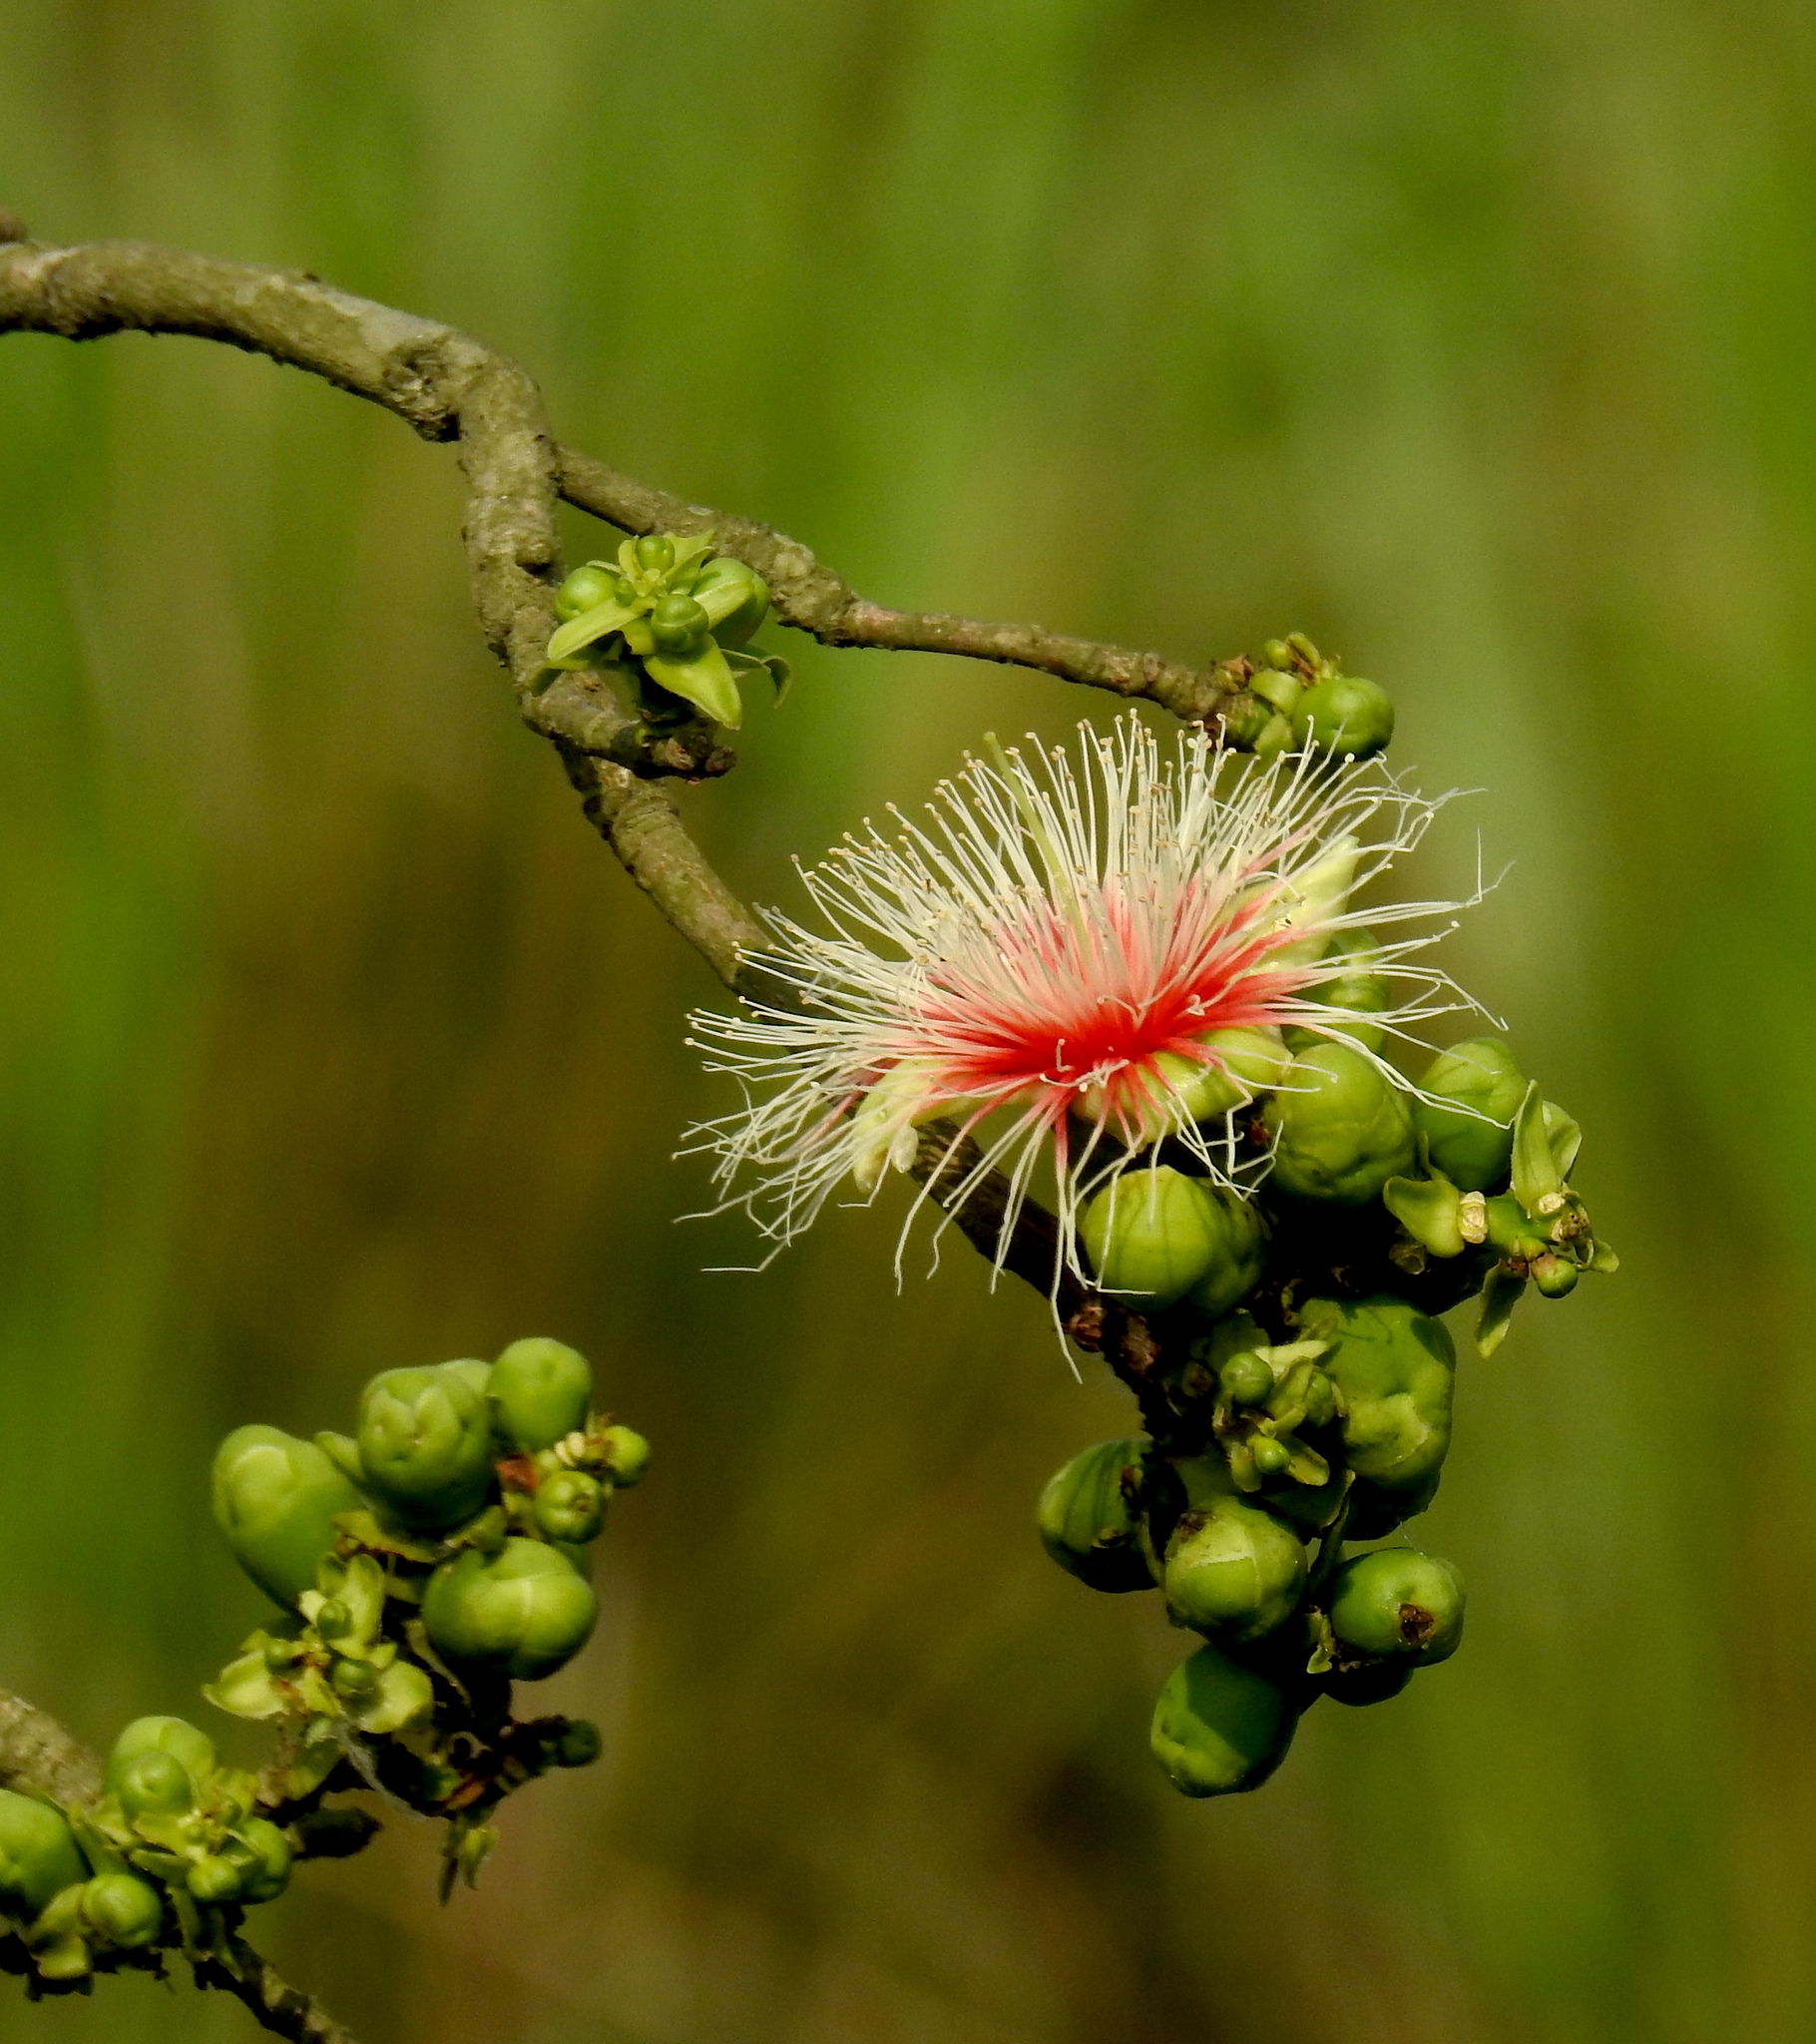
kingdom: Plantae
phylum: Tracheophyta
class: Magnoliopsida
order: Ericales
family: Lecythidaceae
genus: Careya
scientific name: Careya arborea
